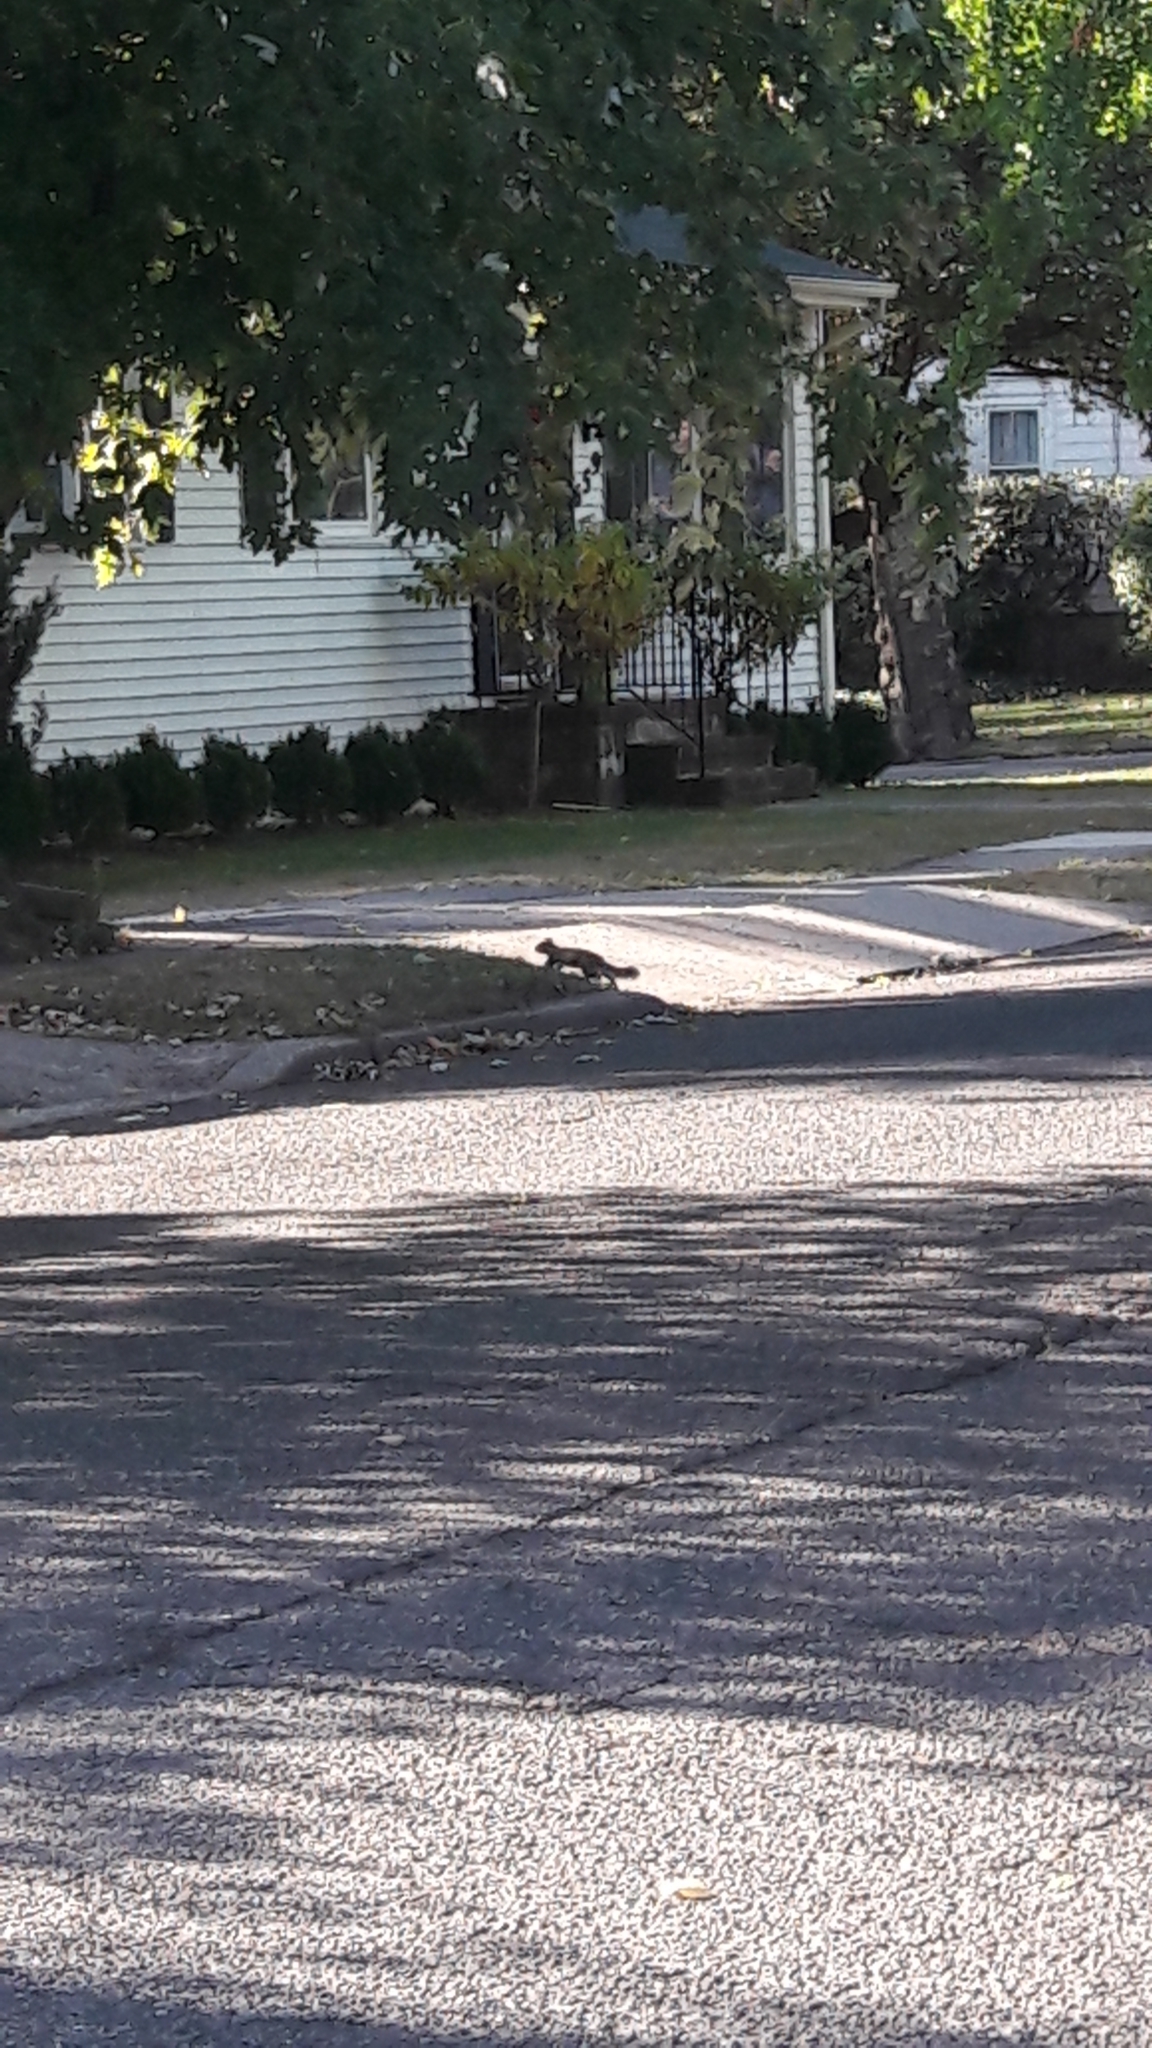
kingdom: Animalia
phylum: Chordata
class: Mammalia
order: Rodentia
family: Sciuridae
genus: Sciurus
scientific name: Sciurus carolinensis
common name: Eastern gray squirrel
